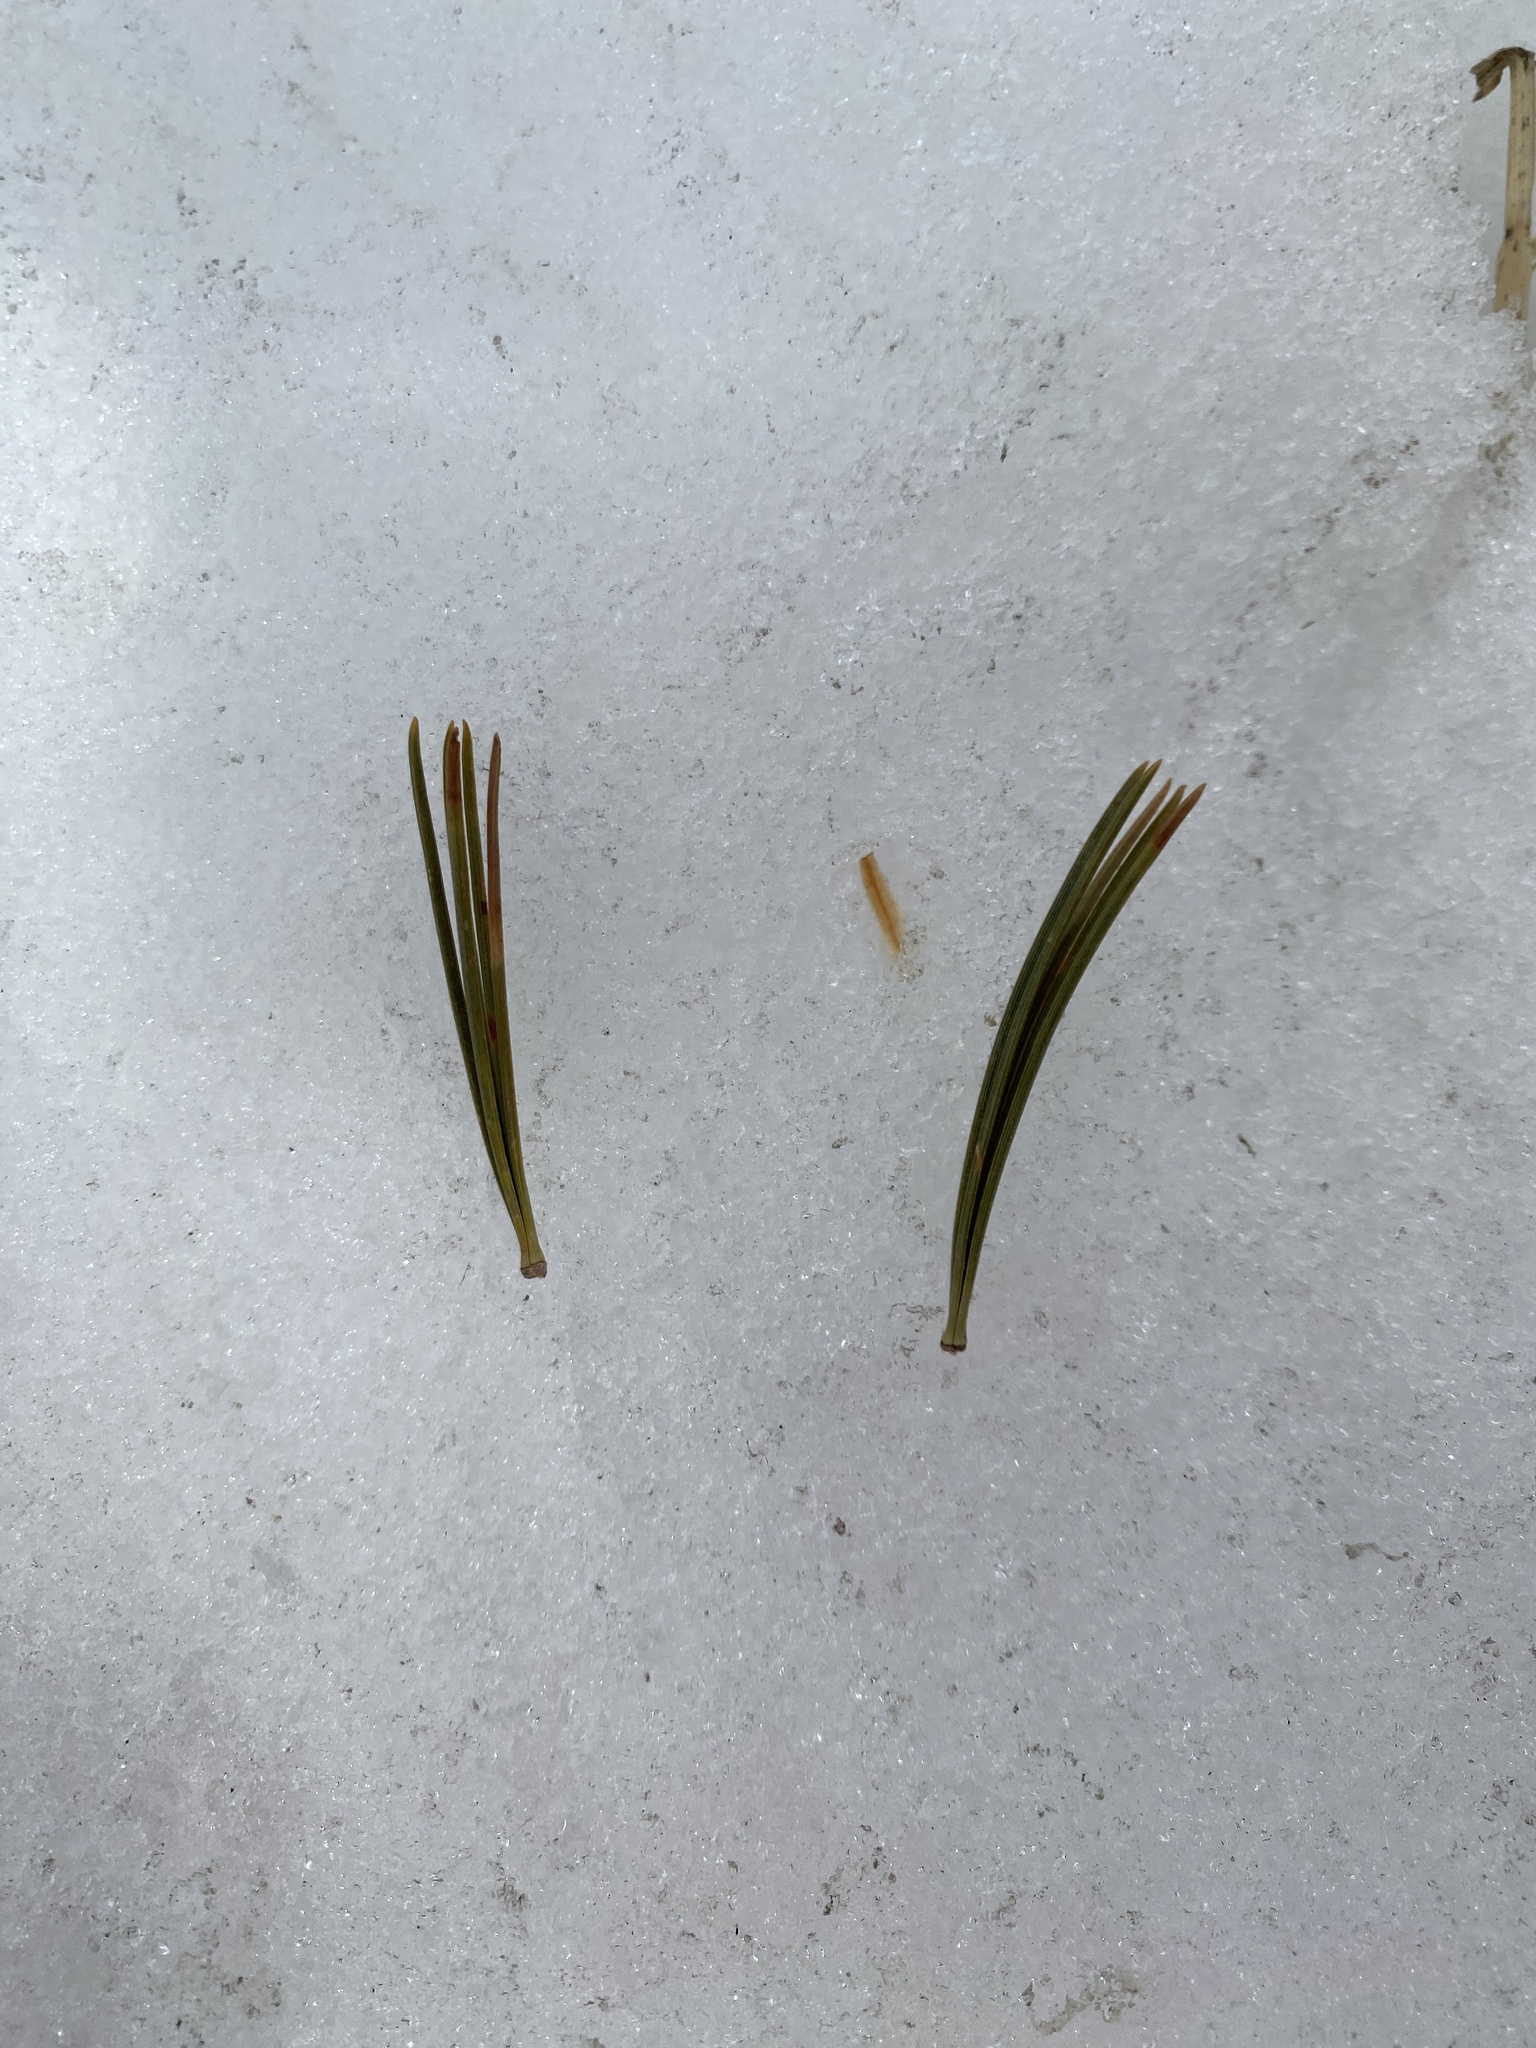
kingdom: Plantae
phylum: Tracheophyta
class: Pinopsida
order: Pinales
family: Pinaceae
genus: Pinus
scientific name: Pinus flexilis
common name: Limber pine
